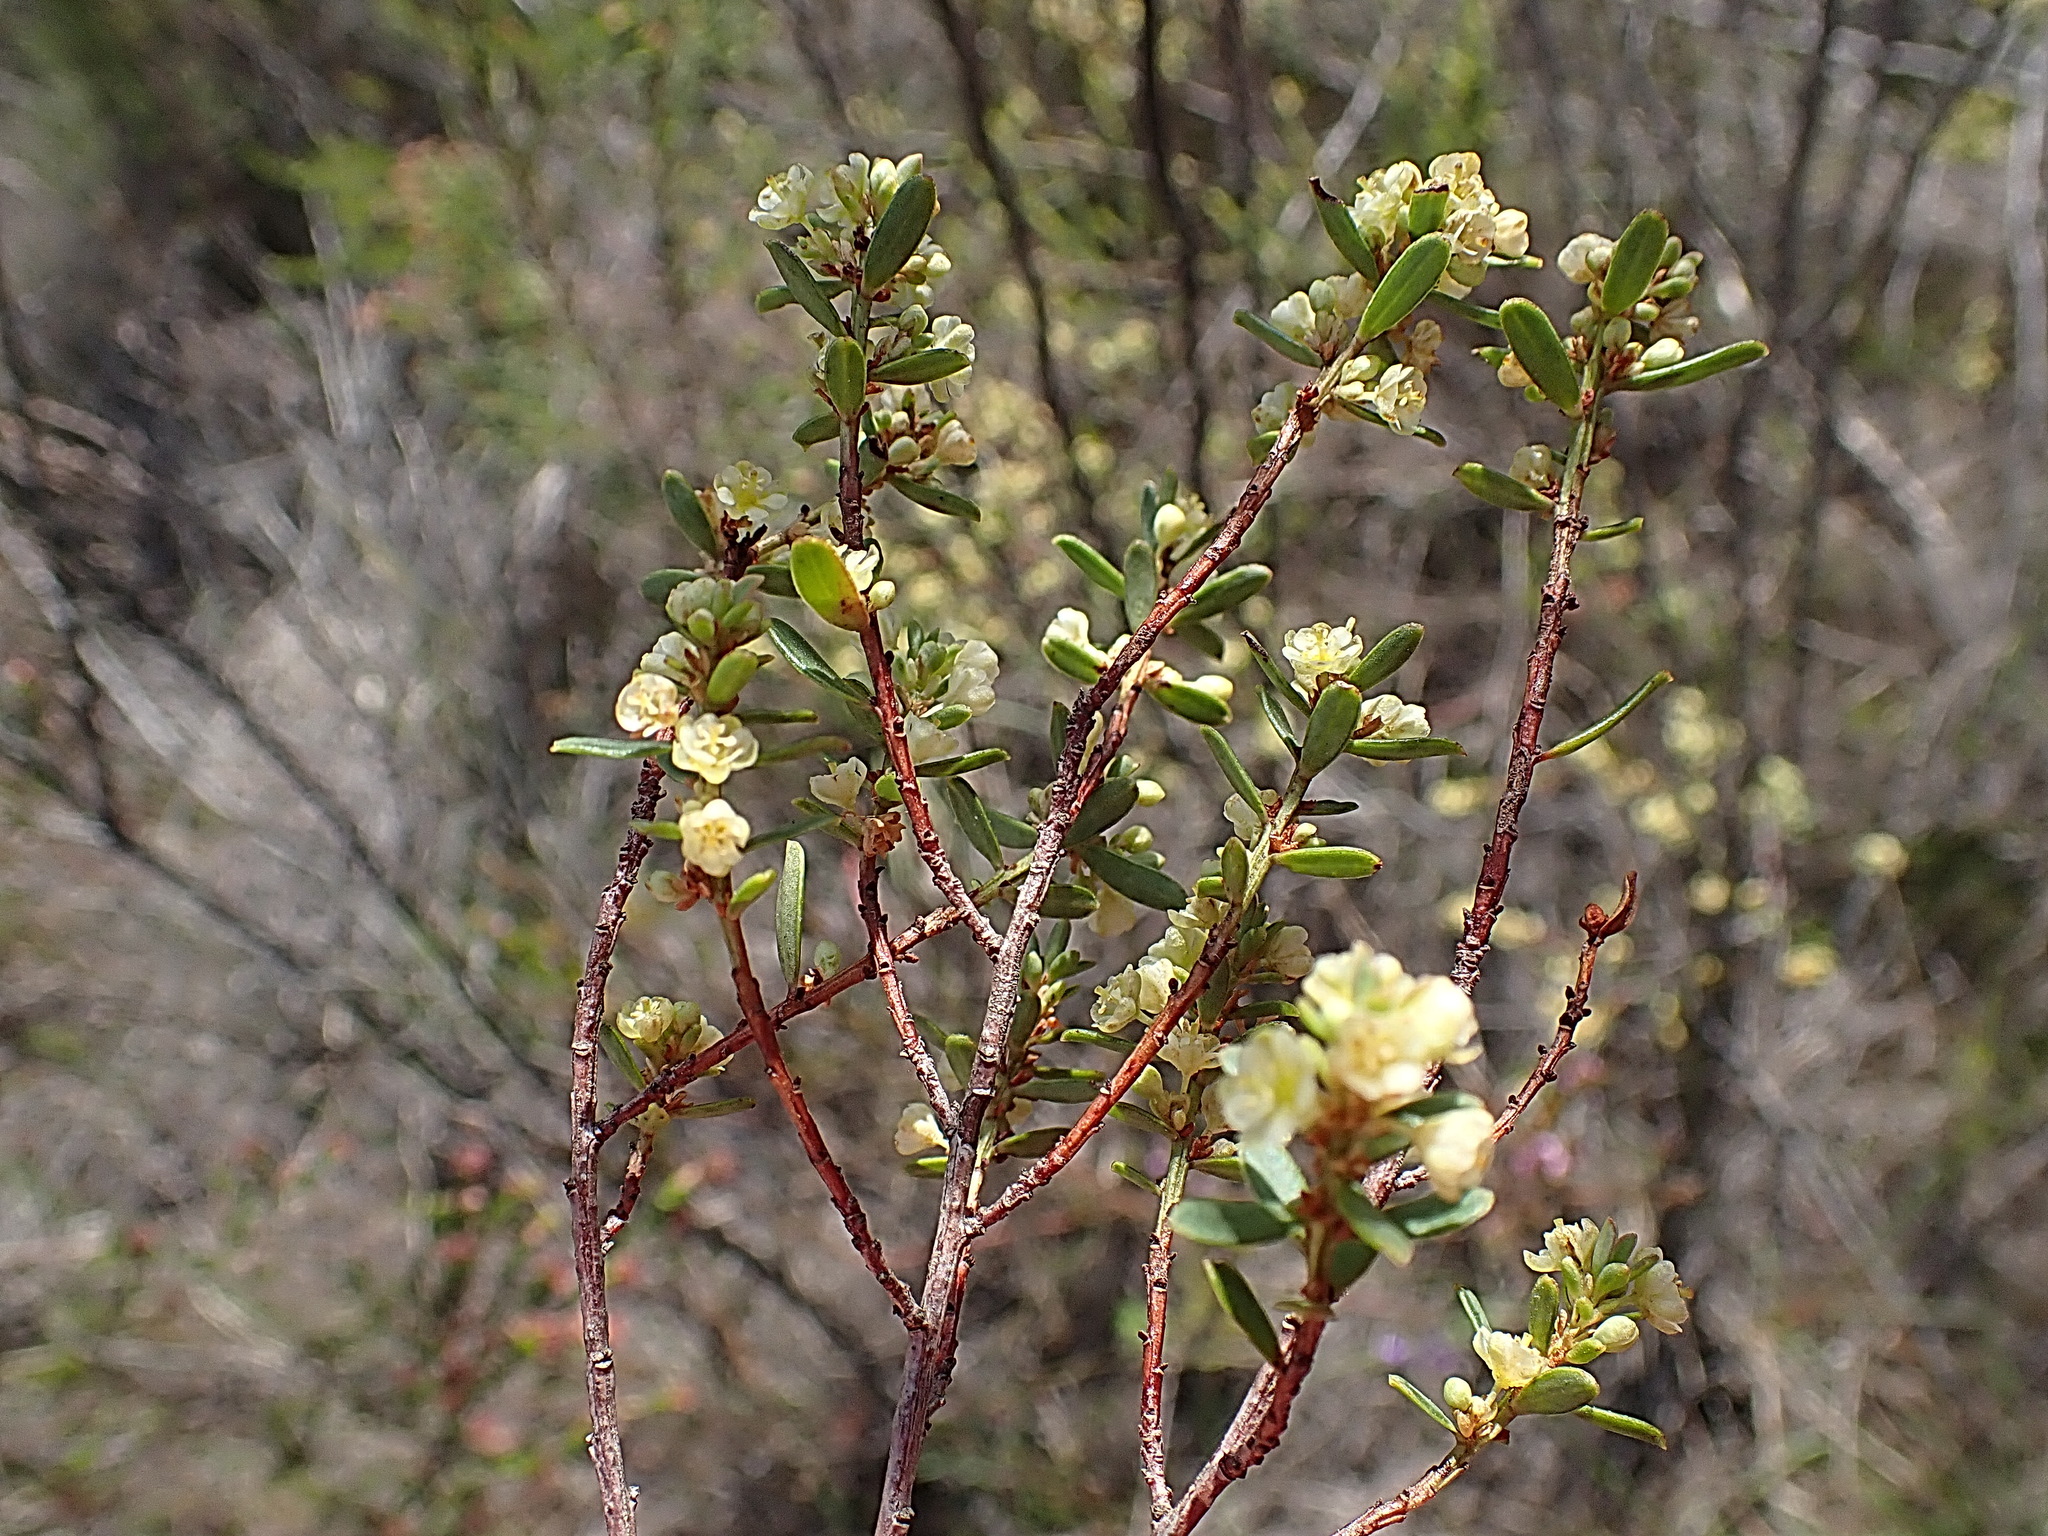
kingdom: Plantae
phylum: Tracheophyta
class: Magnoliopsida
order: Malpighiales
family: Peraceae
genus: Clutia
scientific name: Clutia polifolia
